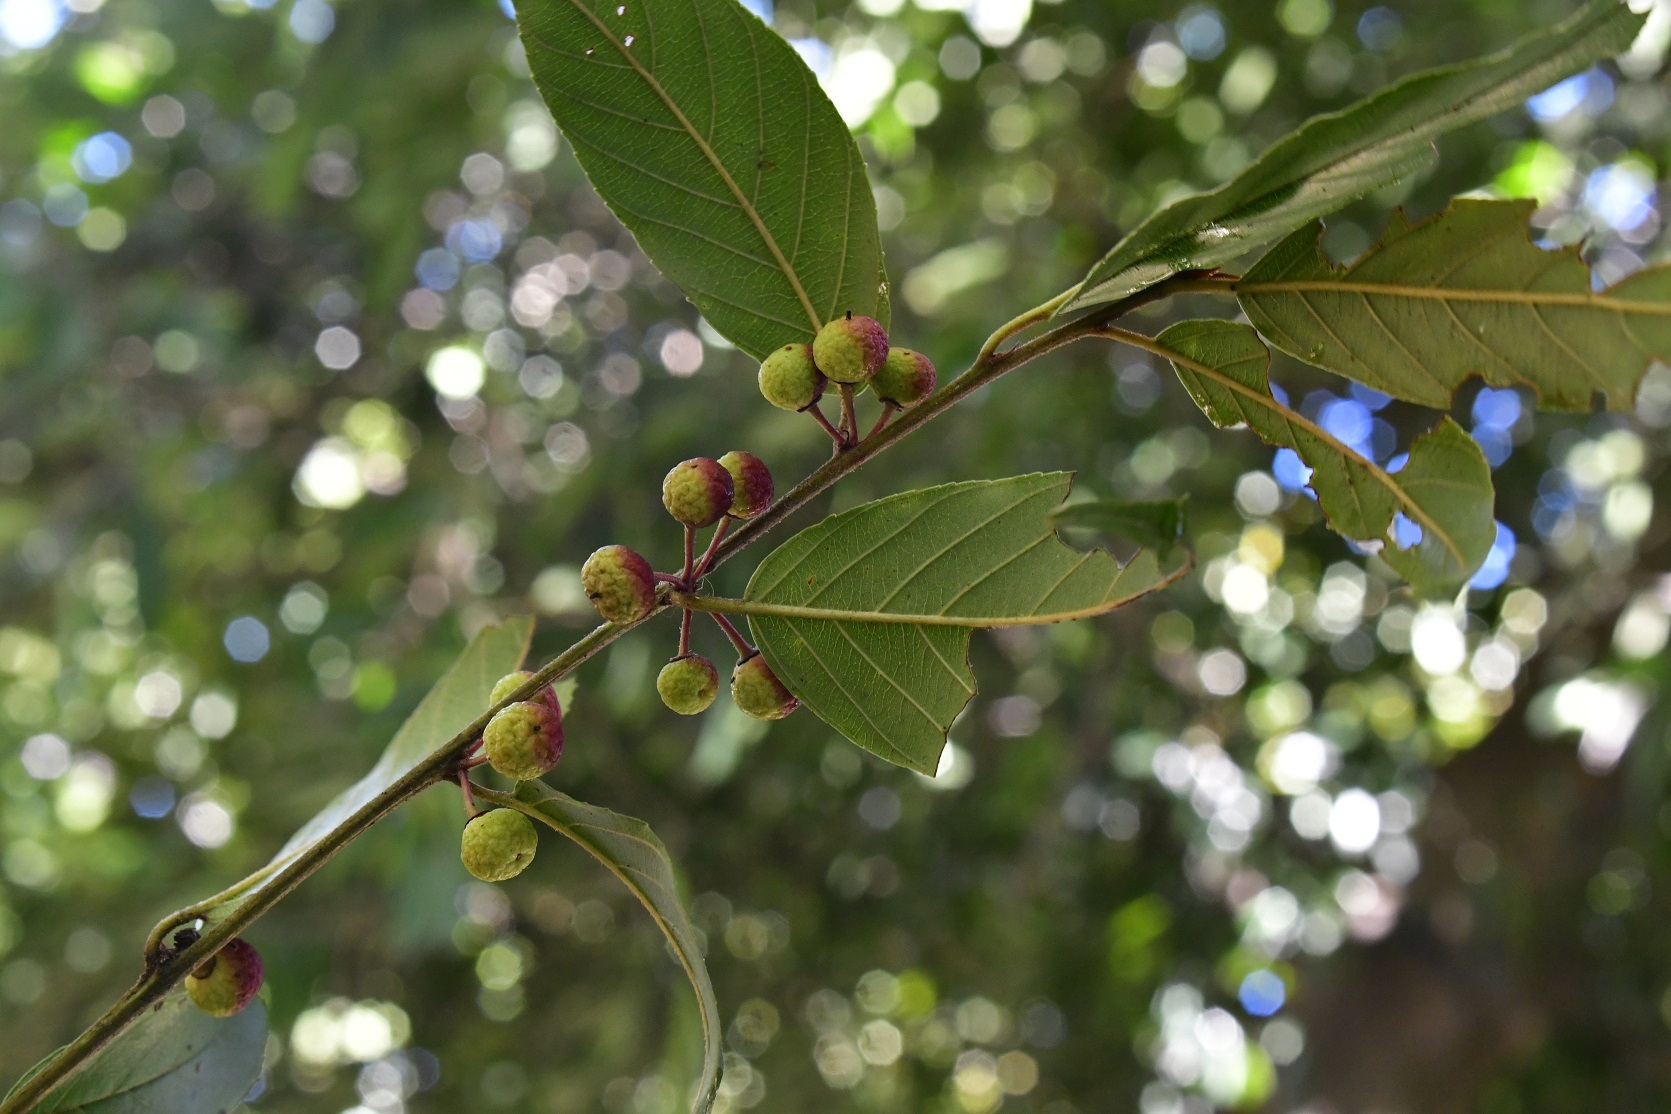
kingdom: Plantae
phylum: Tracheophyta
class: Magnoliopsida
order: Rosales
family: Rhamnaceae
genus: Frangula
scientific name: Frangula breedlovei
